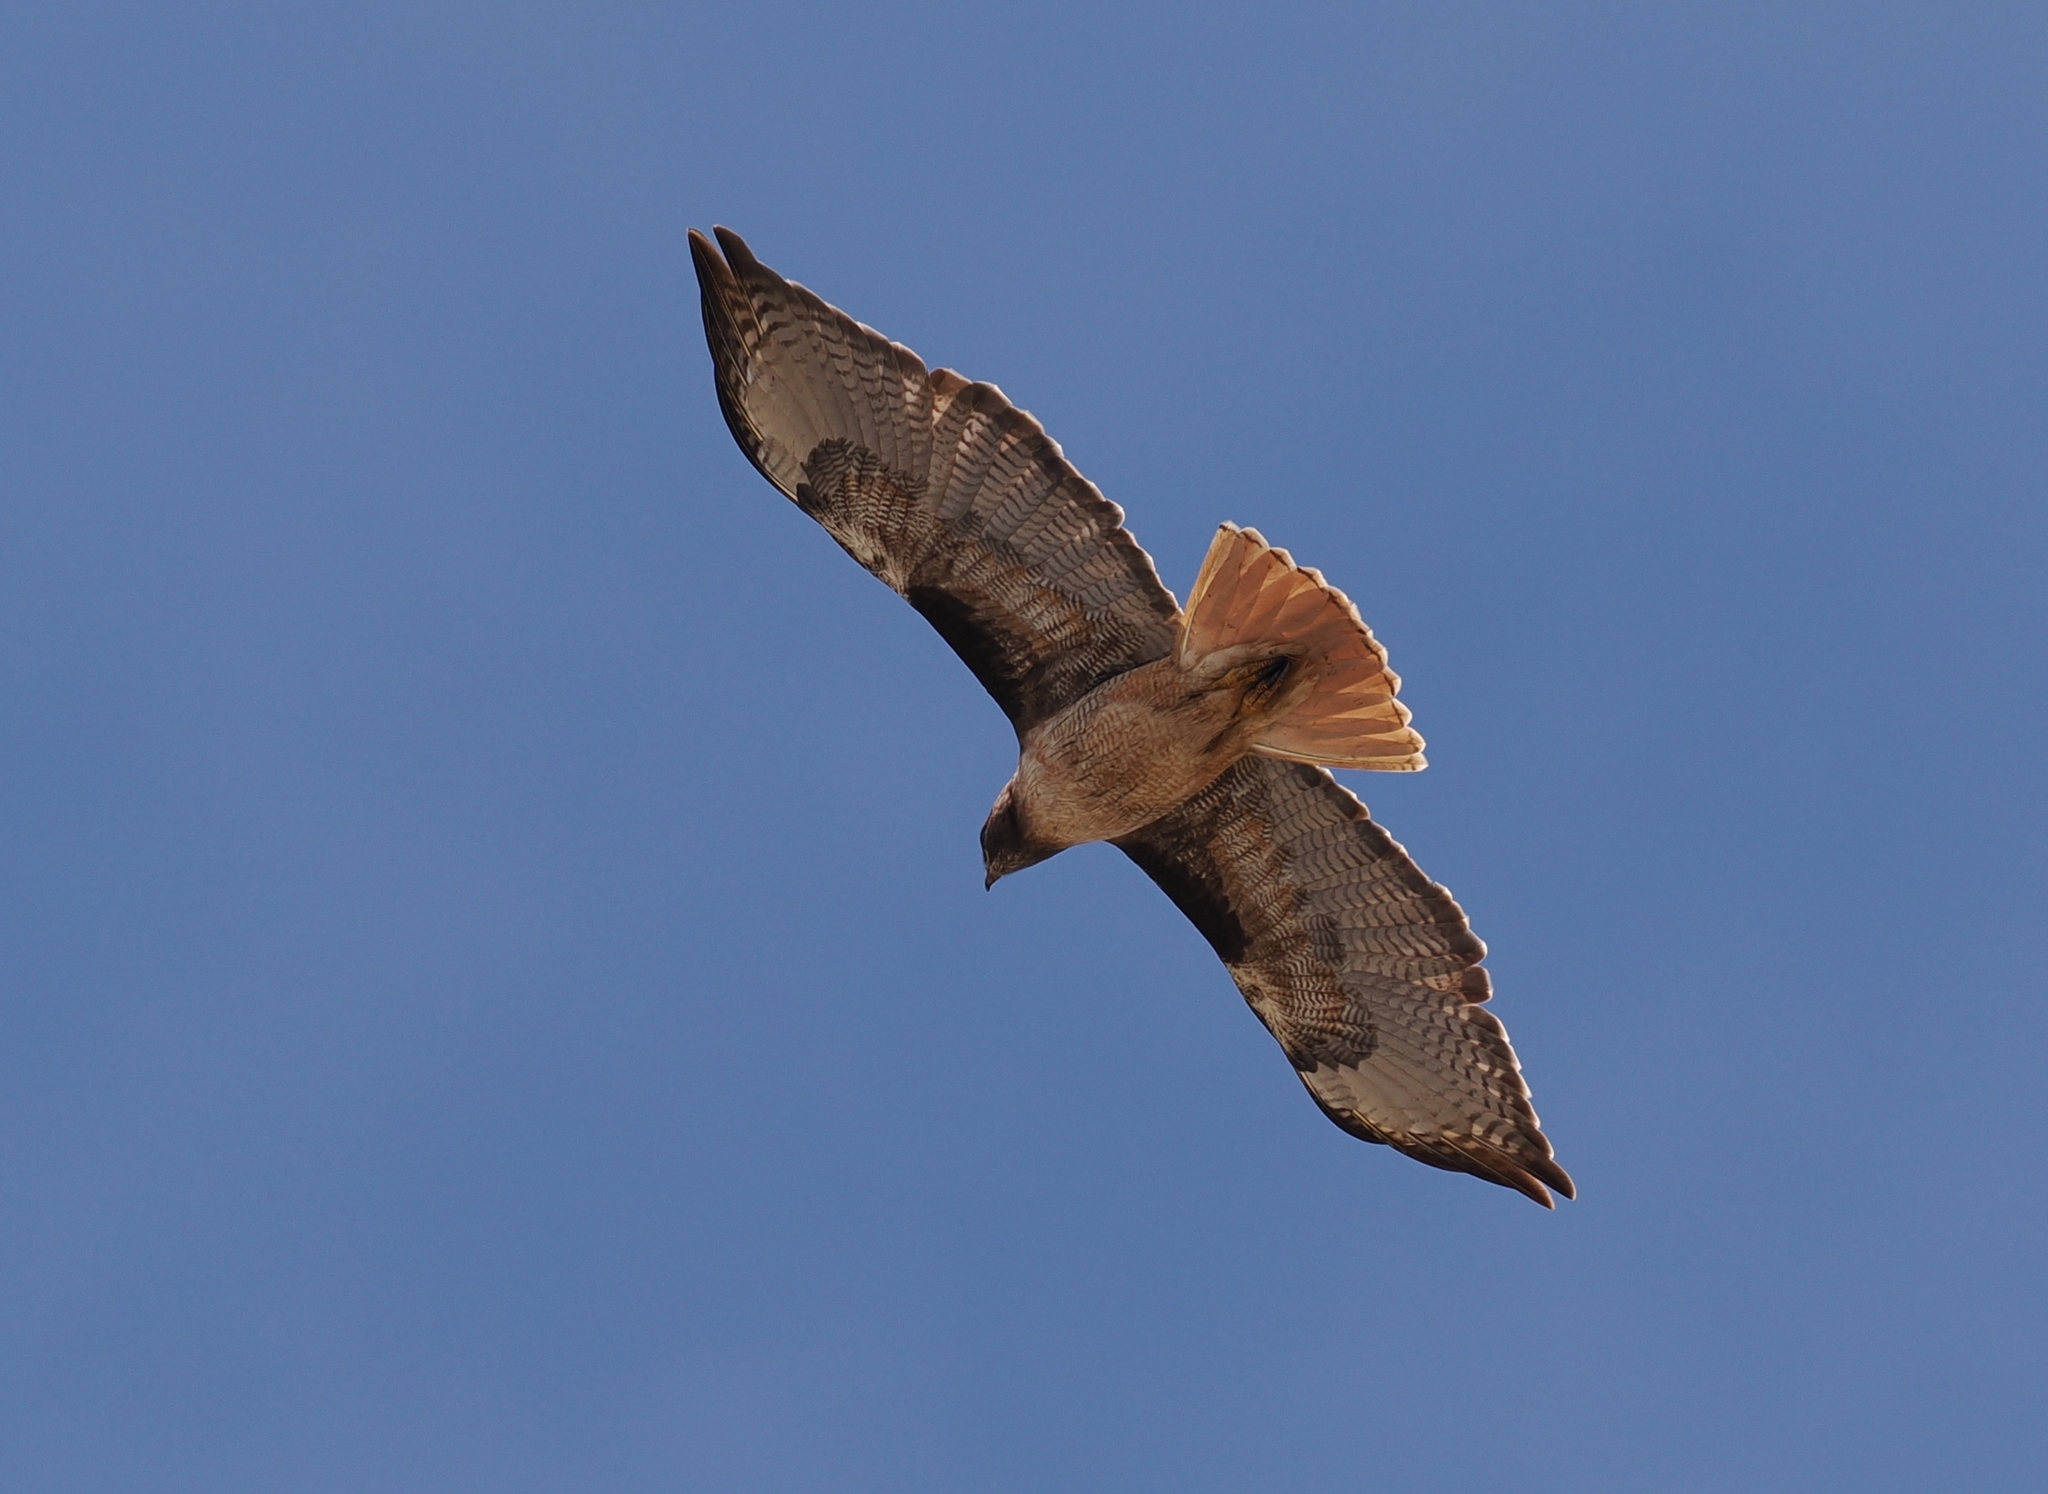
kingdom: Animalia
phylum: Chordata
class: Aves
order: Accipitriformes
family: Accipitridae
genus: Buteo
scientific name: Buteo jamaicensis
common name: Red-tailed hawk
